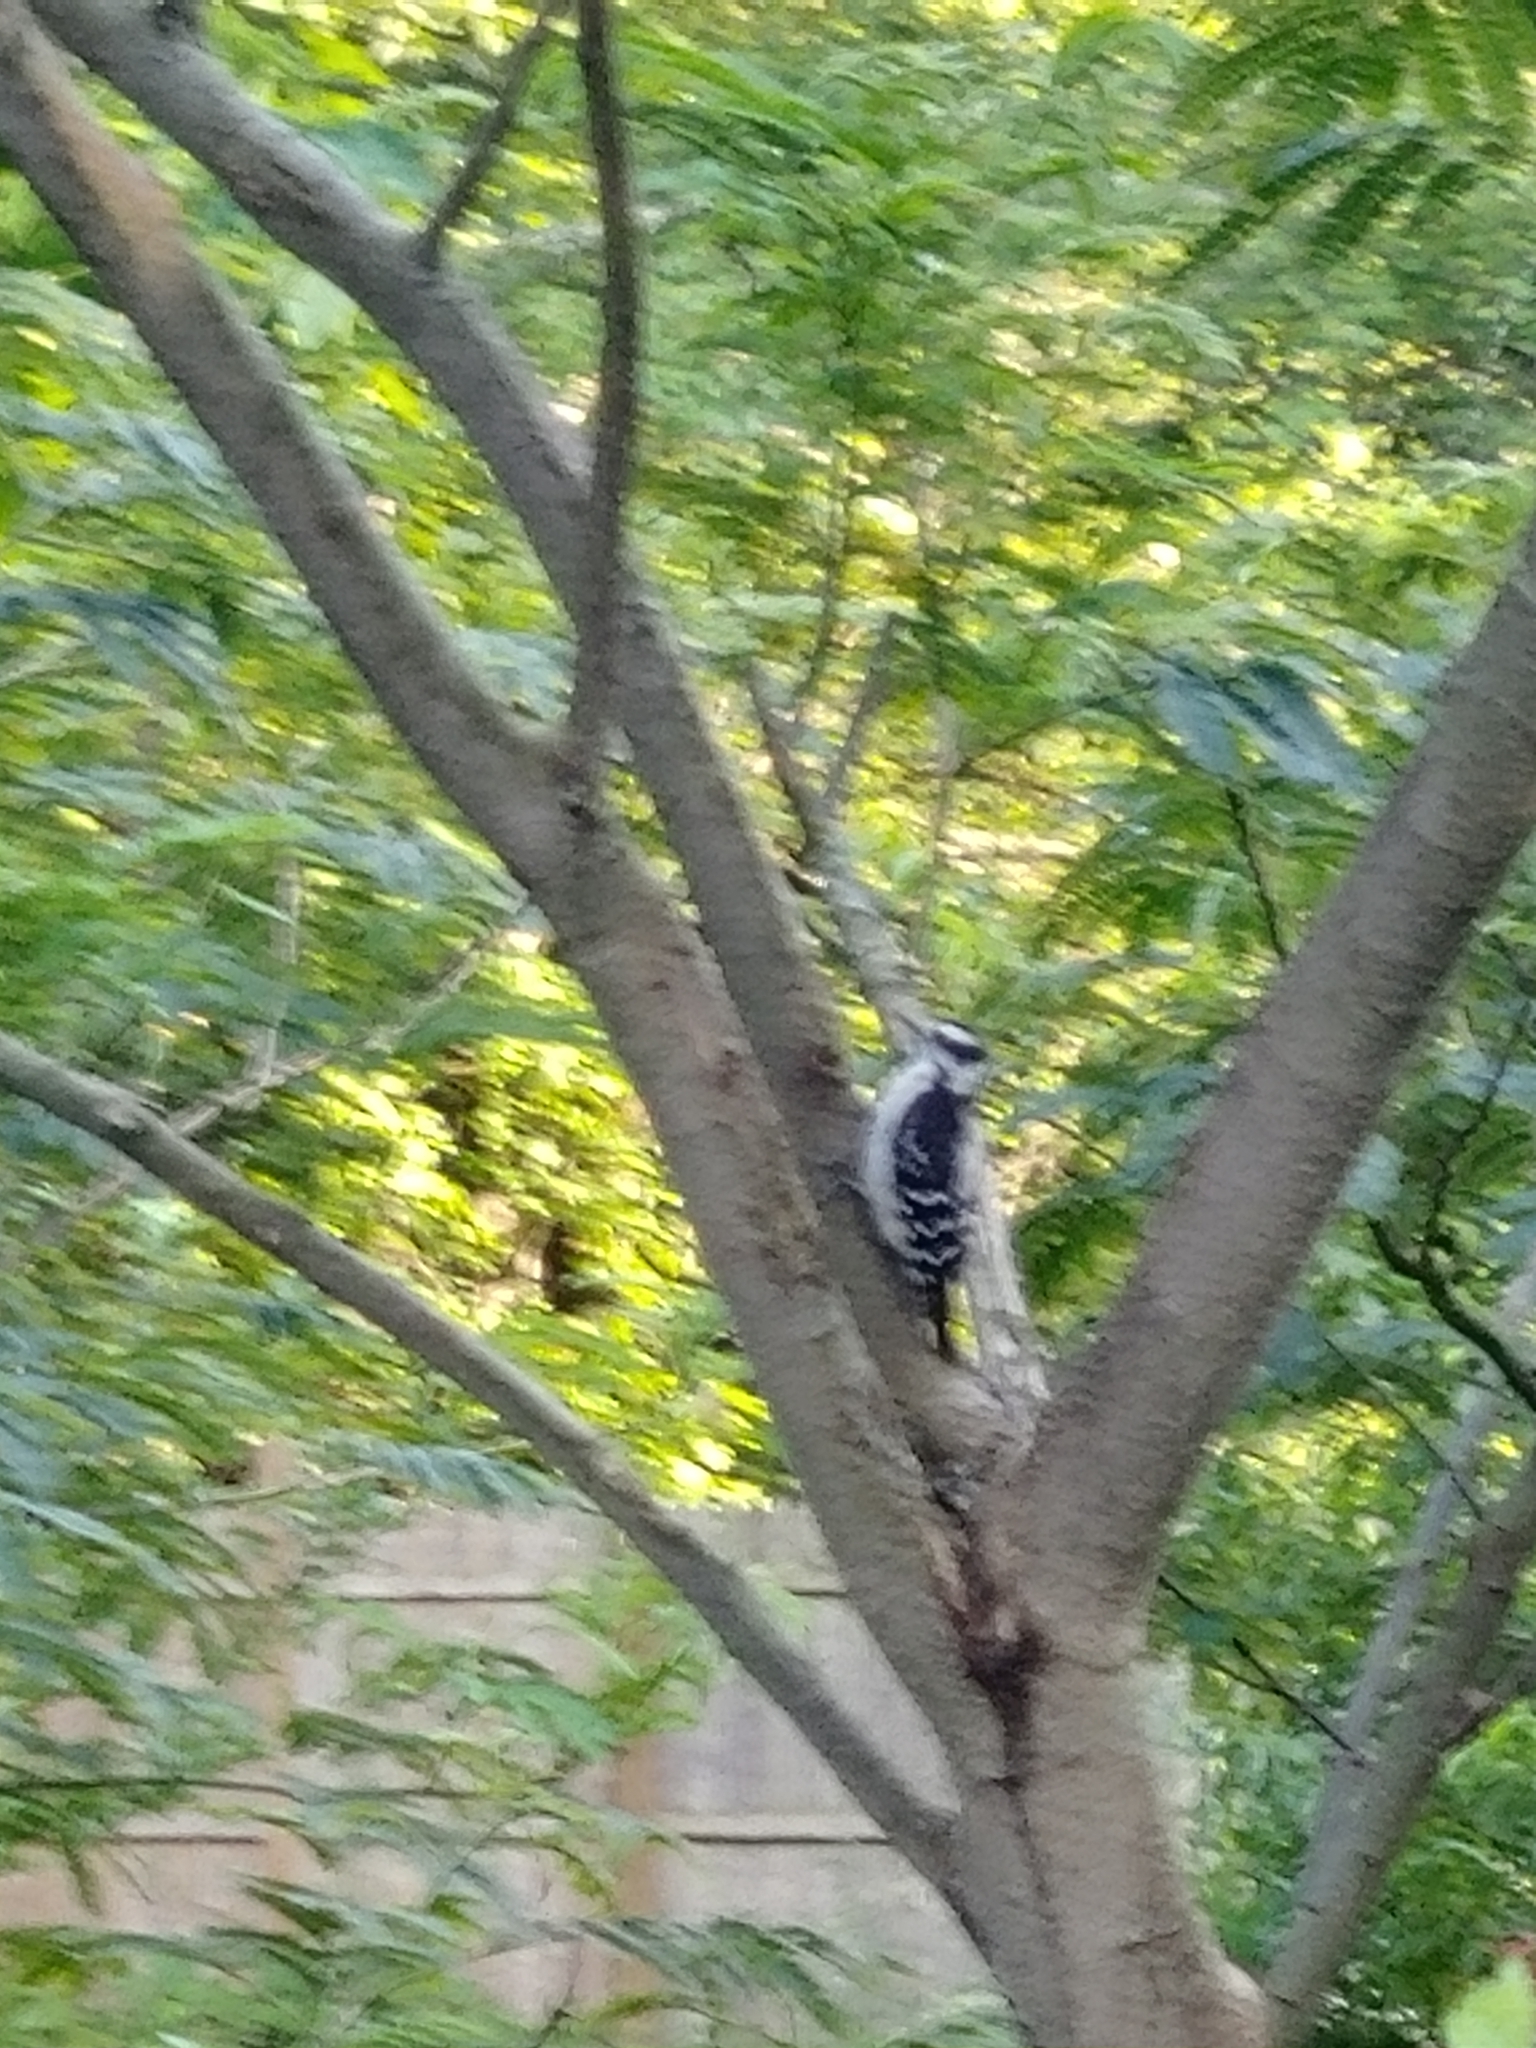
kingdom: Animalia
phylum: Chordata
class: Aves
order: Piciformes
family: Picidae
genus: Dryobates
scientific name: Dryobates pubescens
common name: Downy woodpecker
